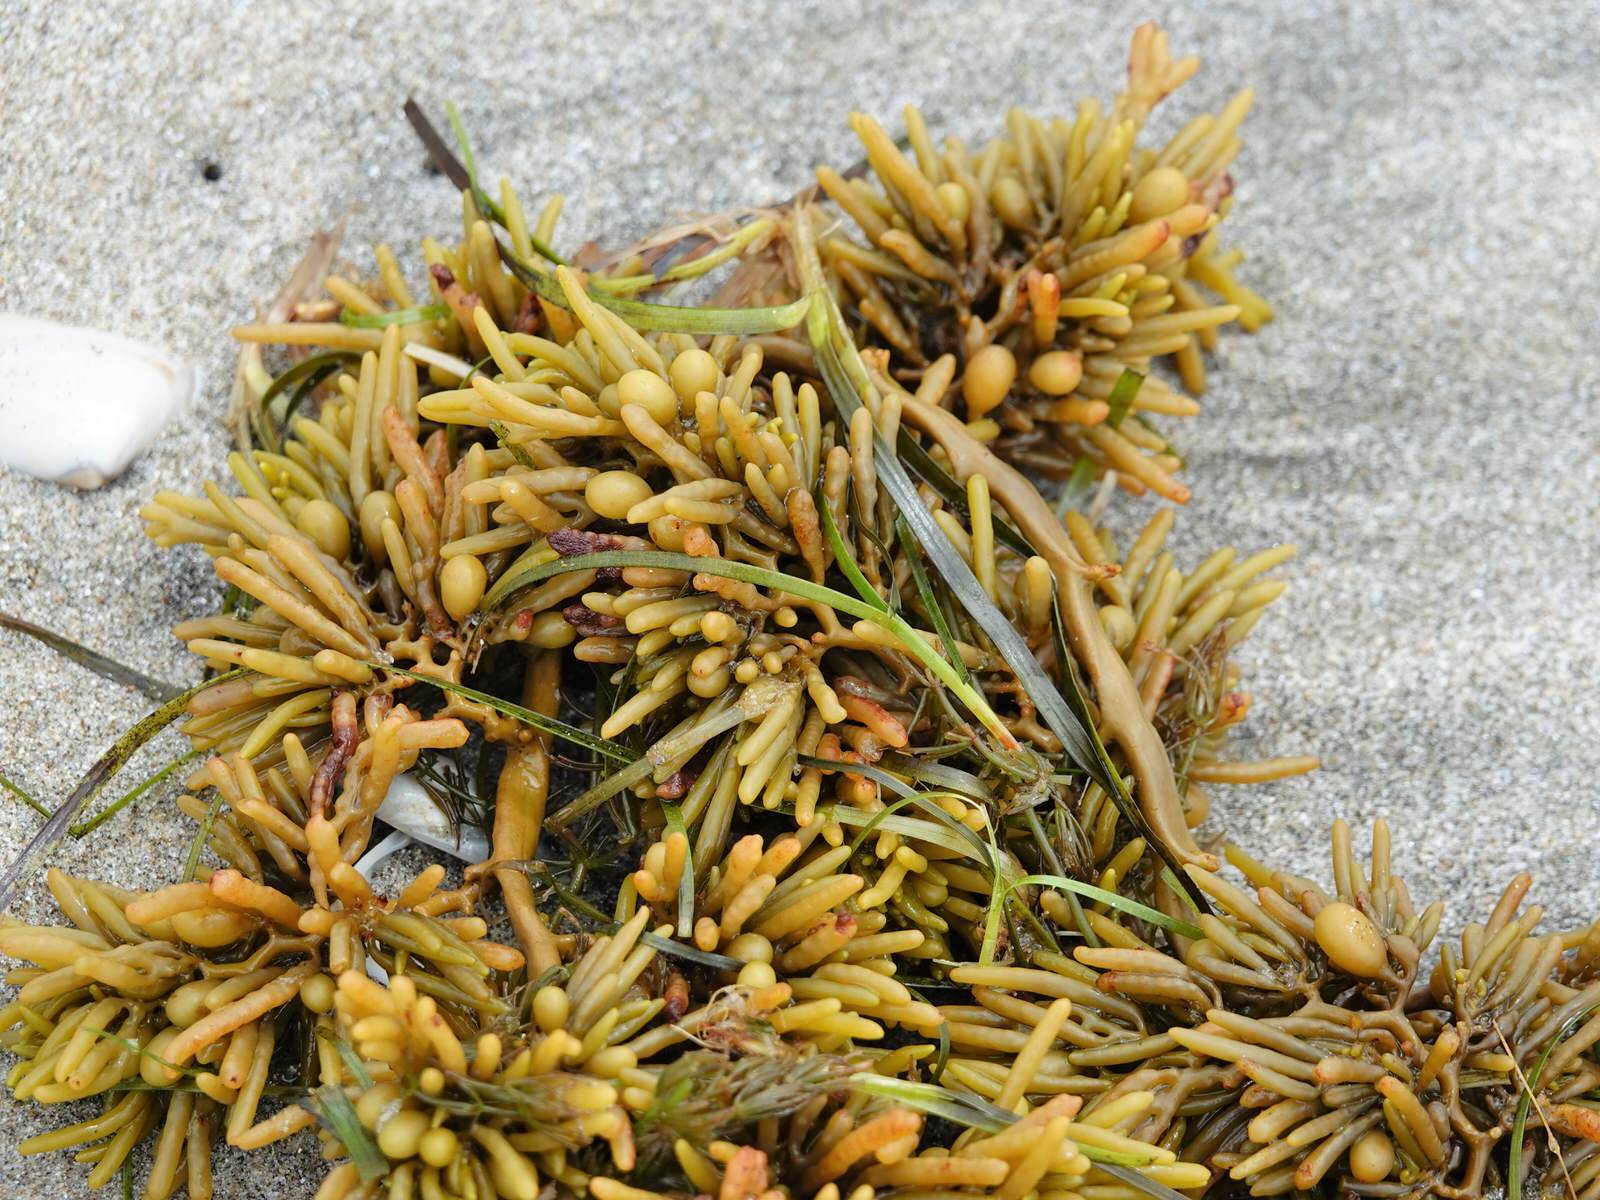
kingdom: Chromista
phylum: Ochrophyta
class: Phaeophyceae
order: Fucales
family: Sargassaceae
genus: Cystophora
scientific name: Cystophora torulosa
